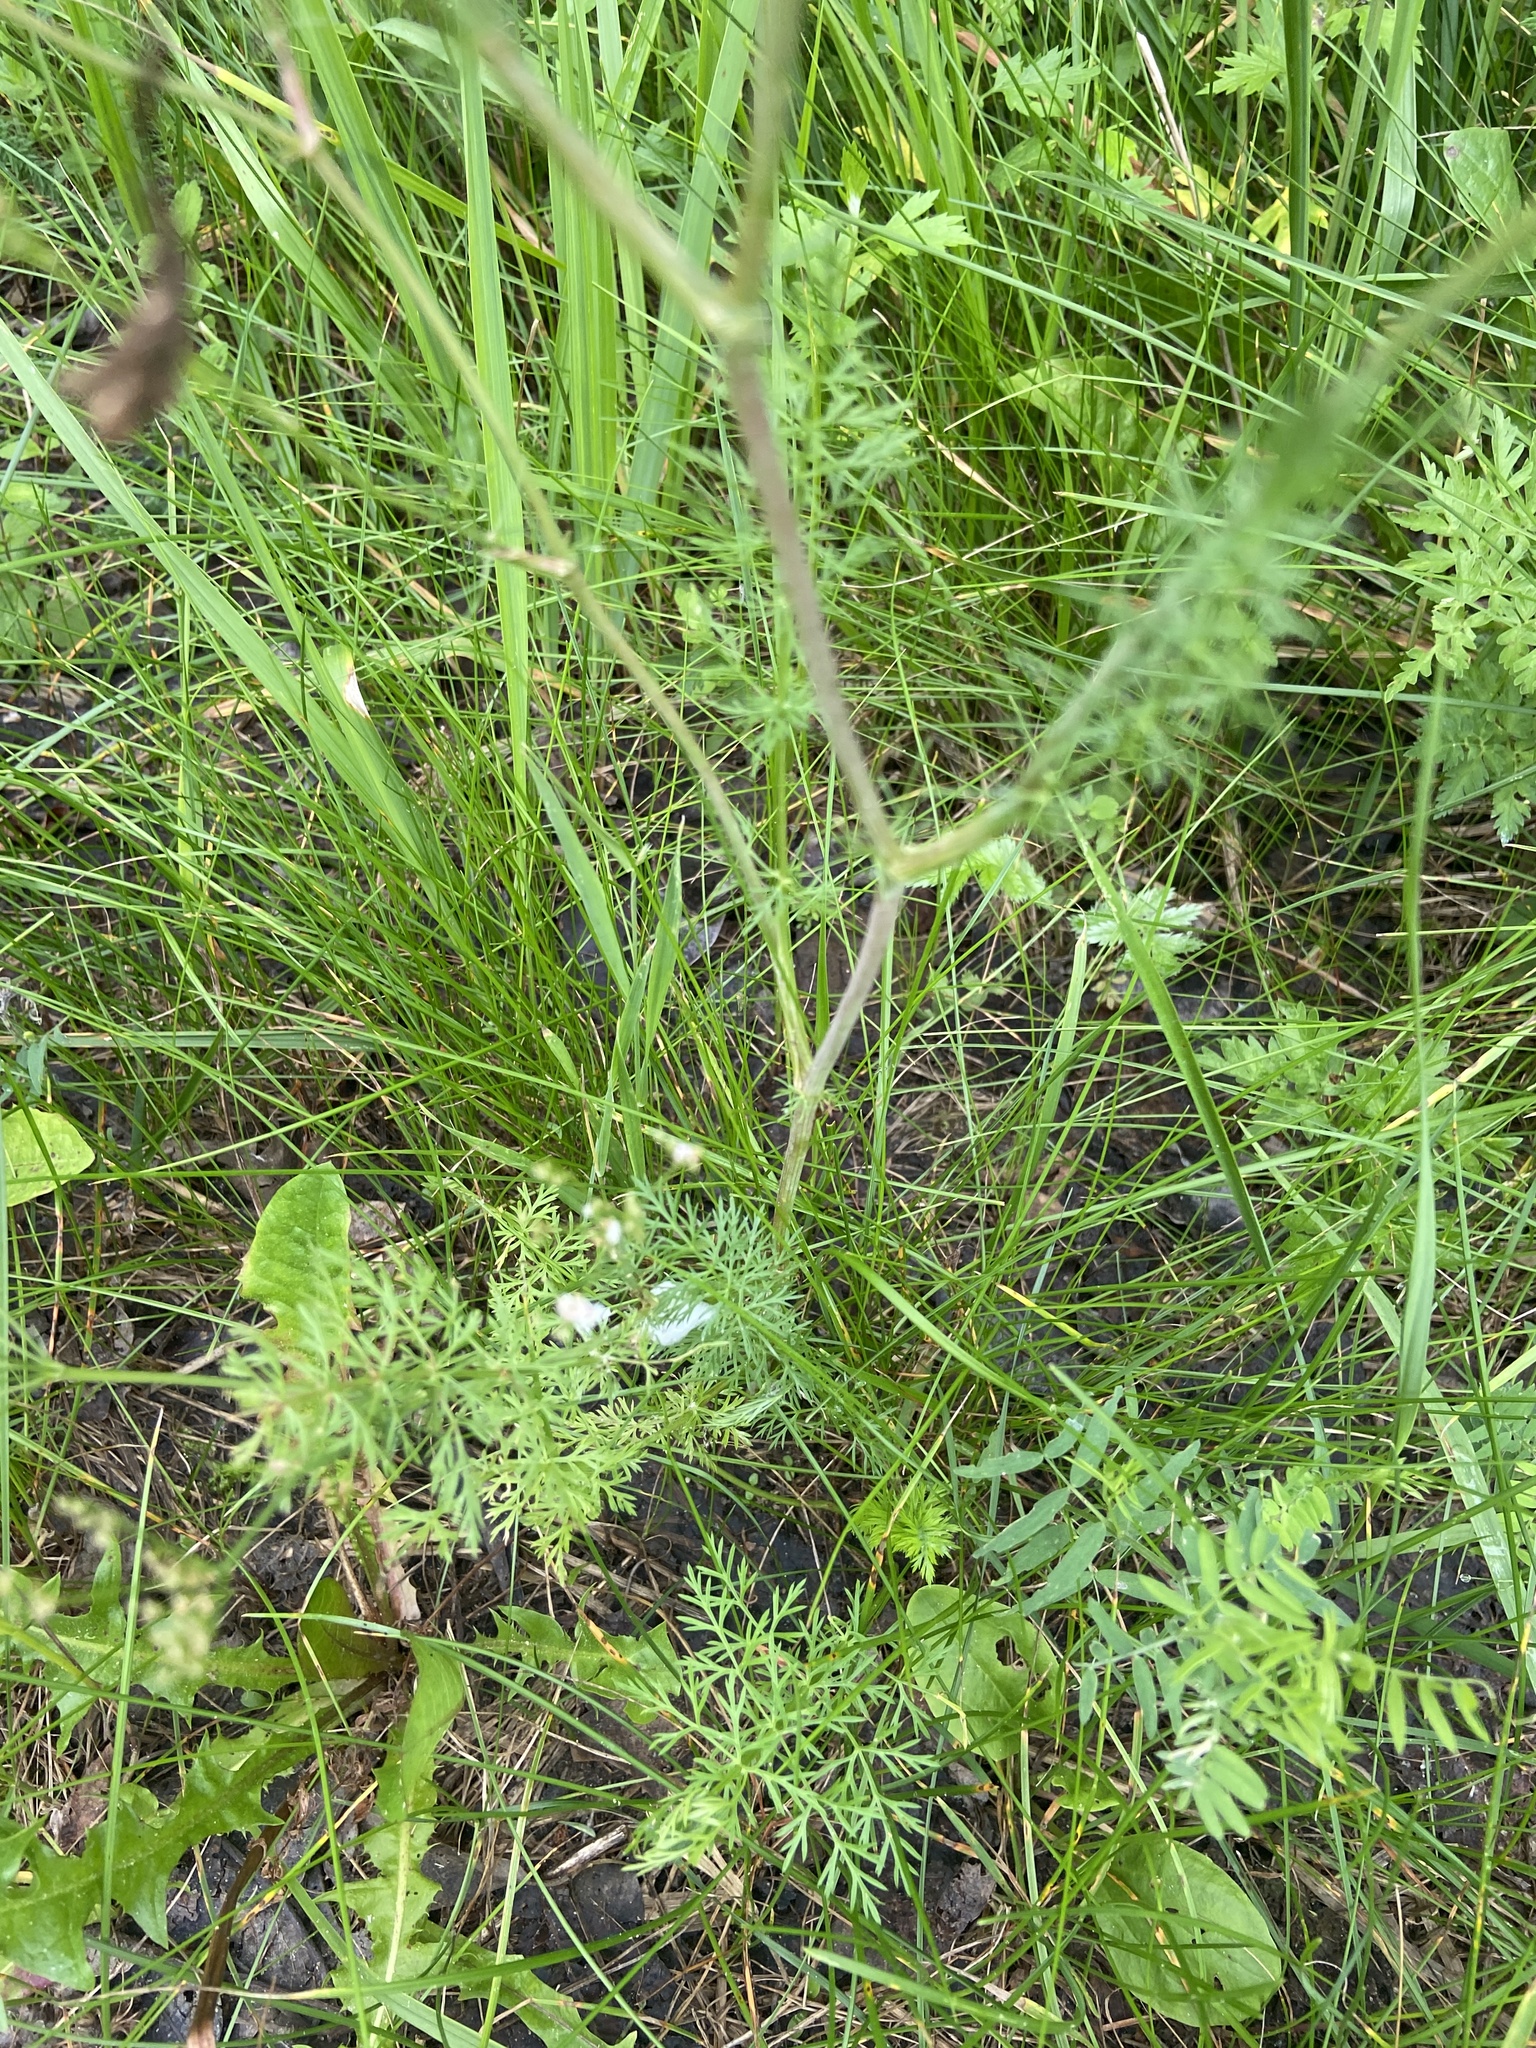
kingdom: Plantae
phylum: Tracheophyta
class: Magnoliopsida
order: Apiales
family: Apiaceae
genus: Carum
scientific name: Carum carvi
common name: Caraway
